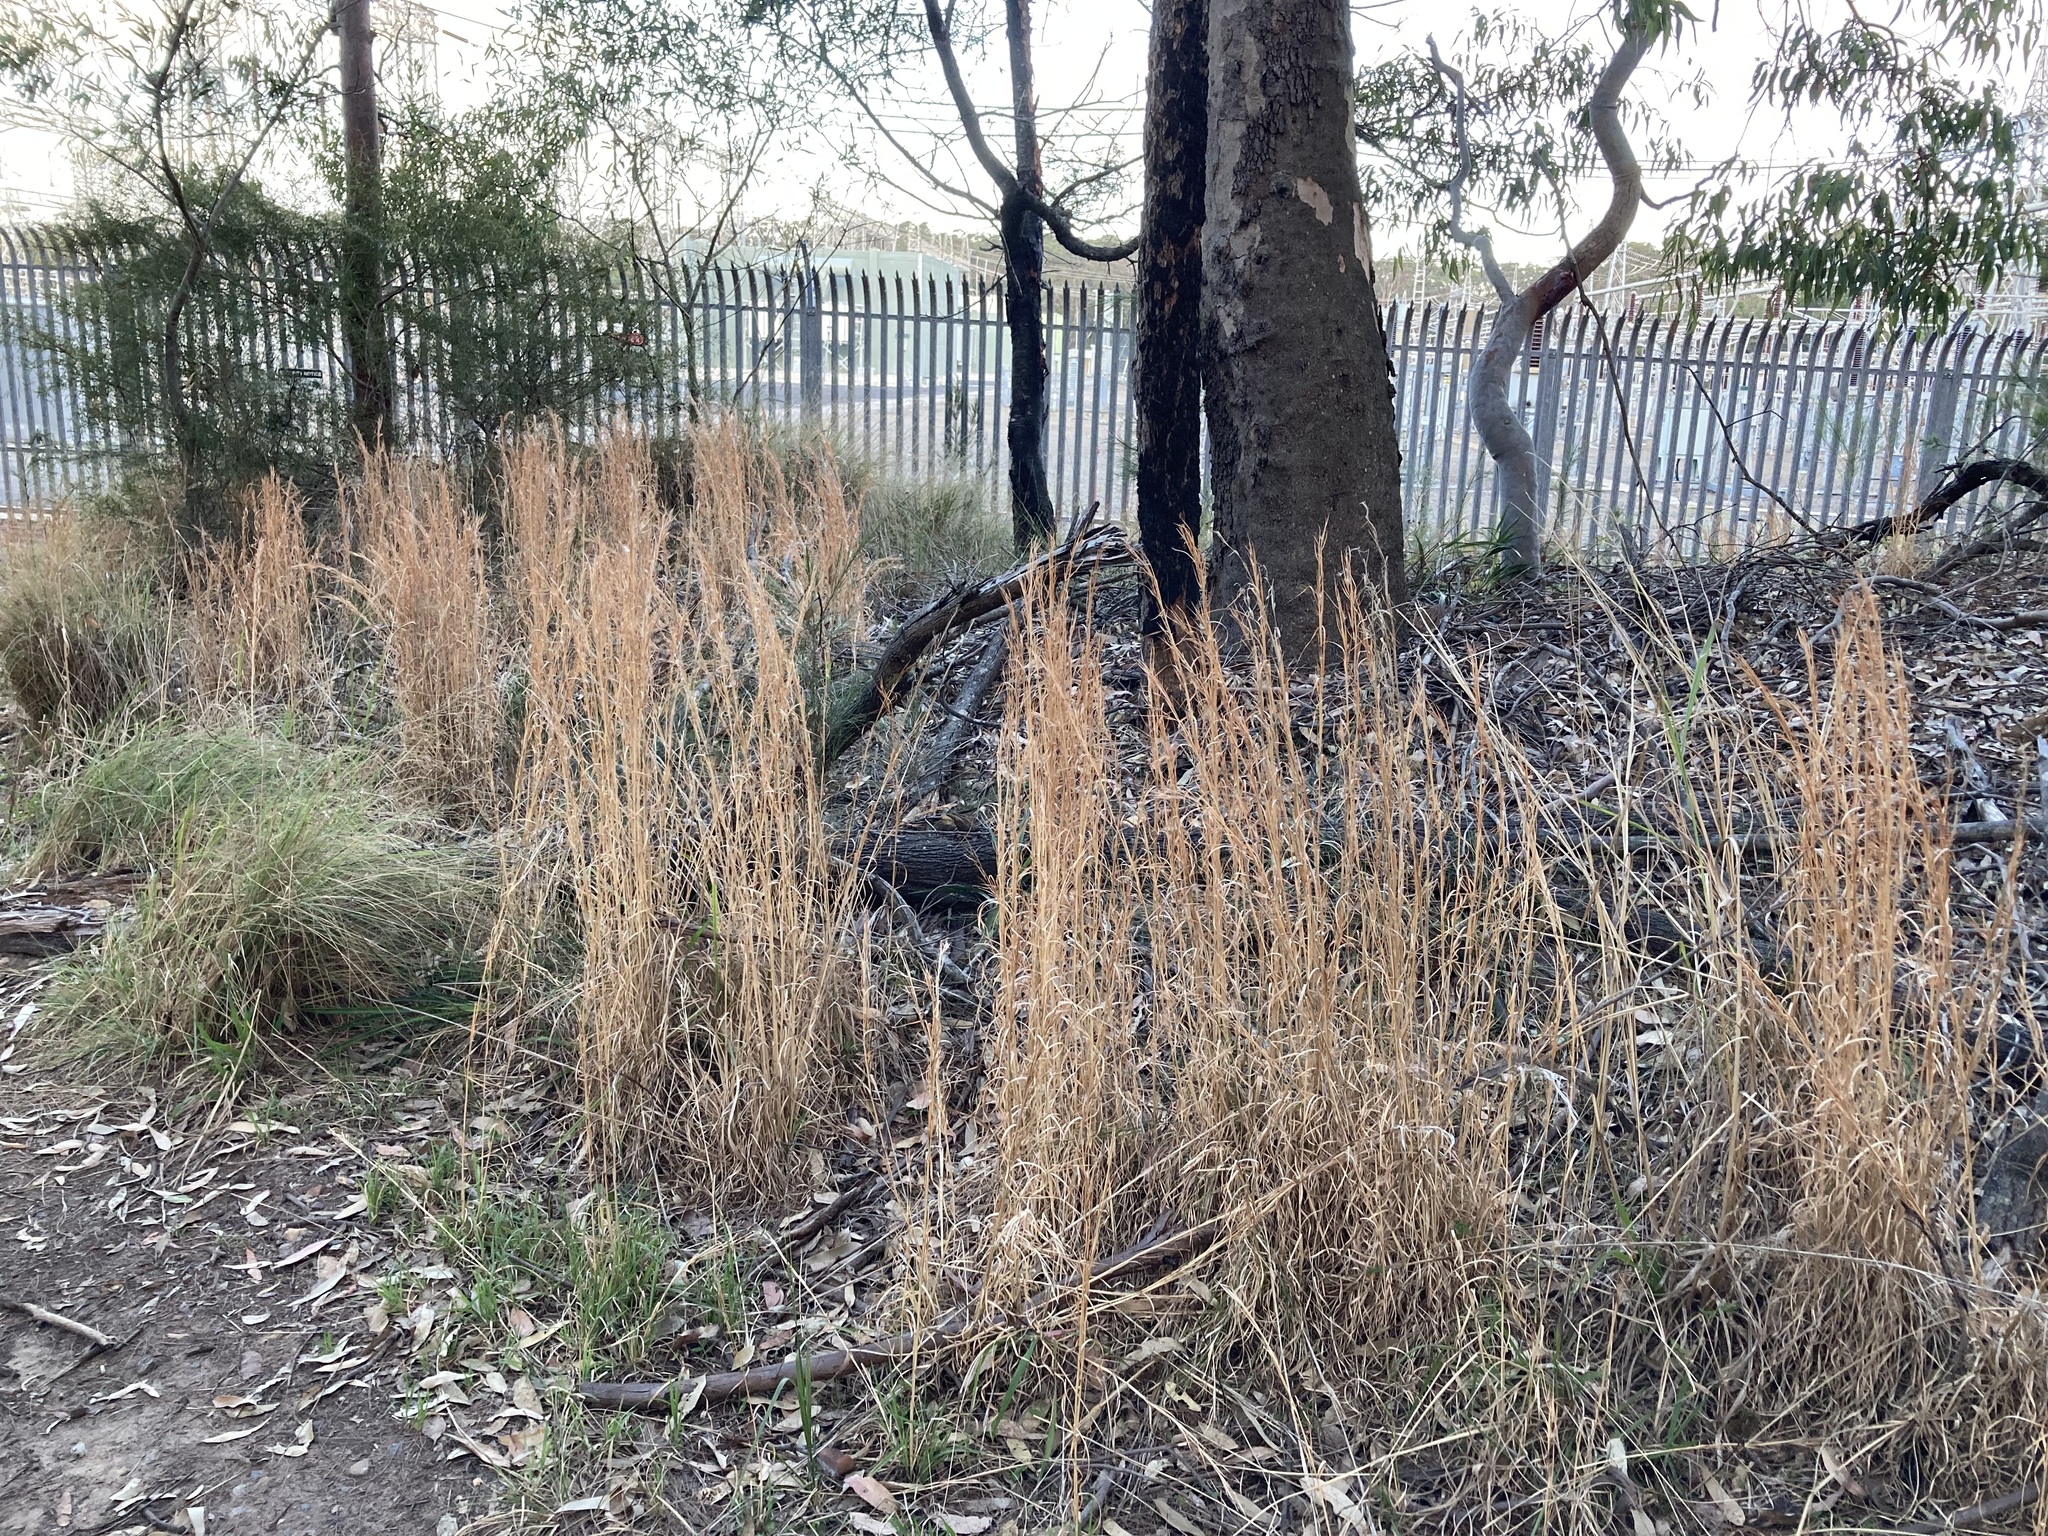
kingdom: Plantae
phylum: Tracheophyta
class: Liliopsida
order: Poales
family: Poaceae
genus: Andropogon
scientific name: Andropogon virginicus
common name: Broomsedge bluestem
